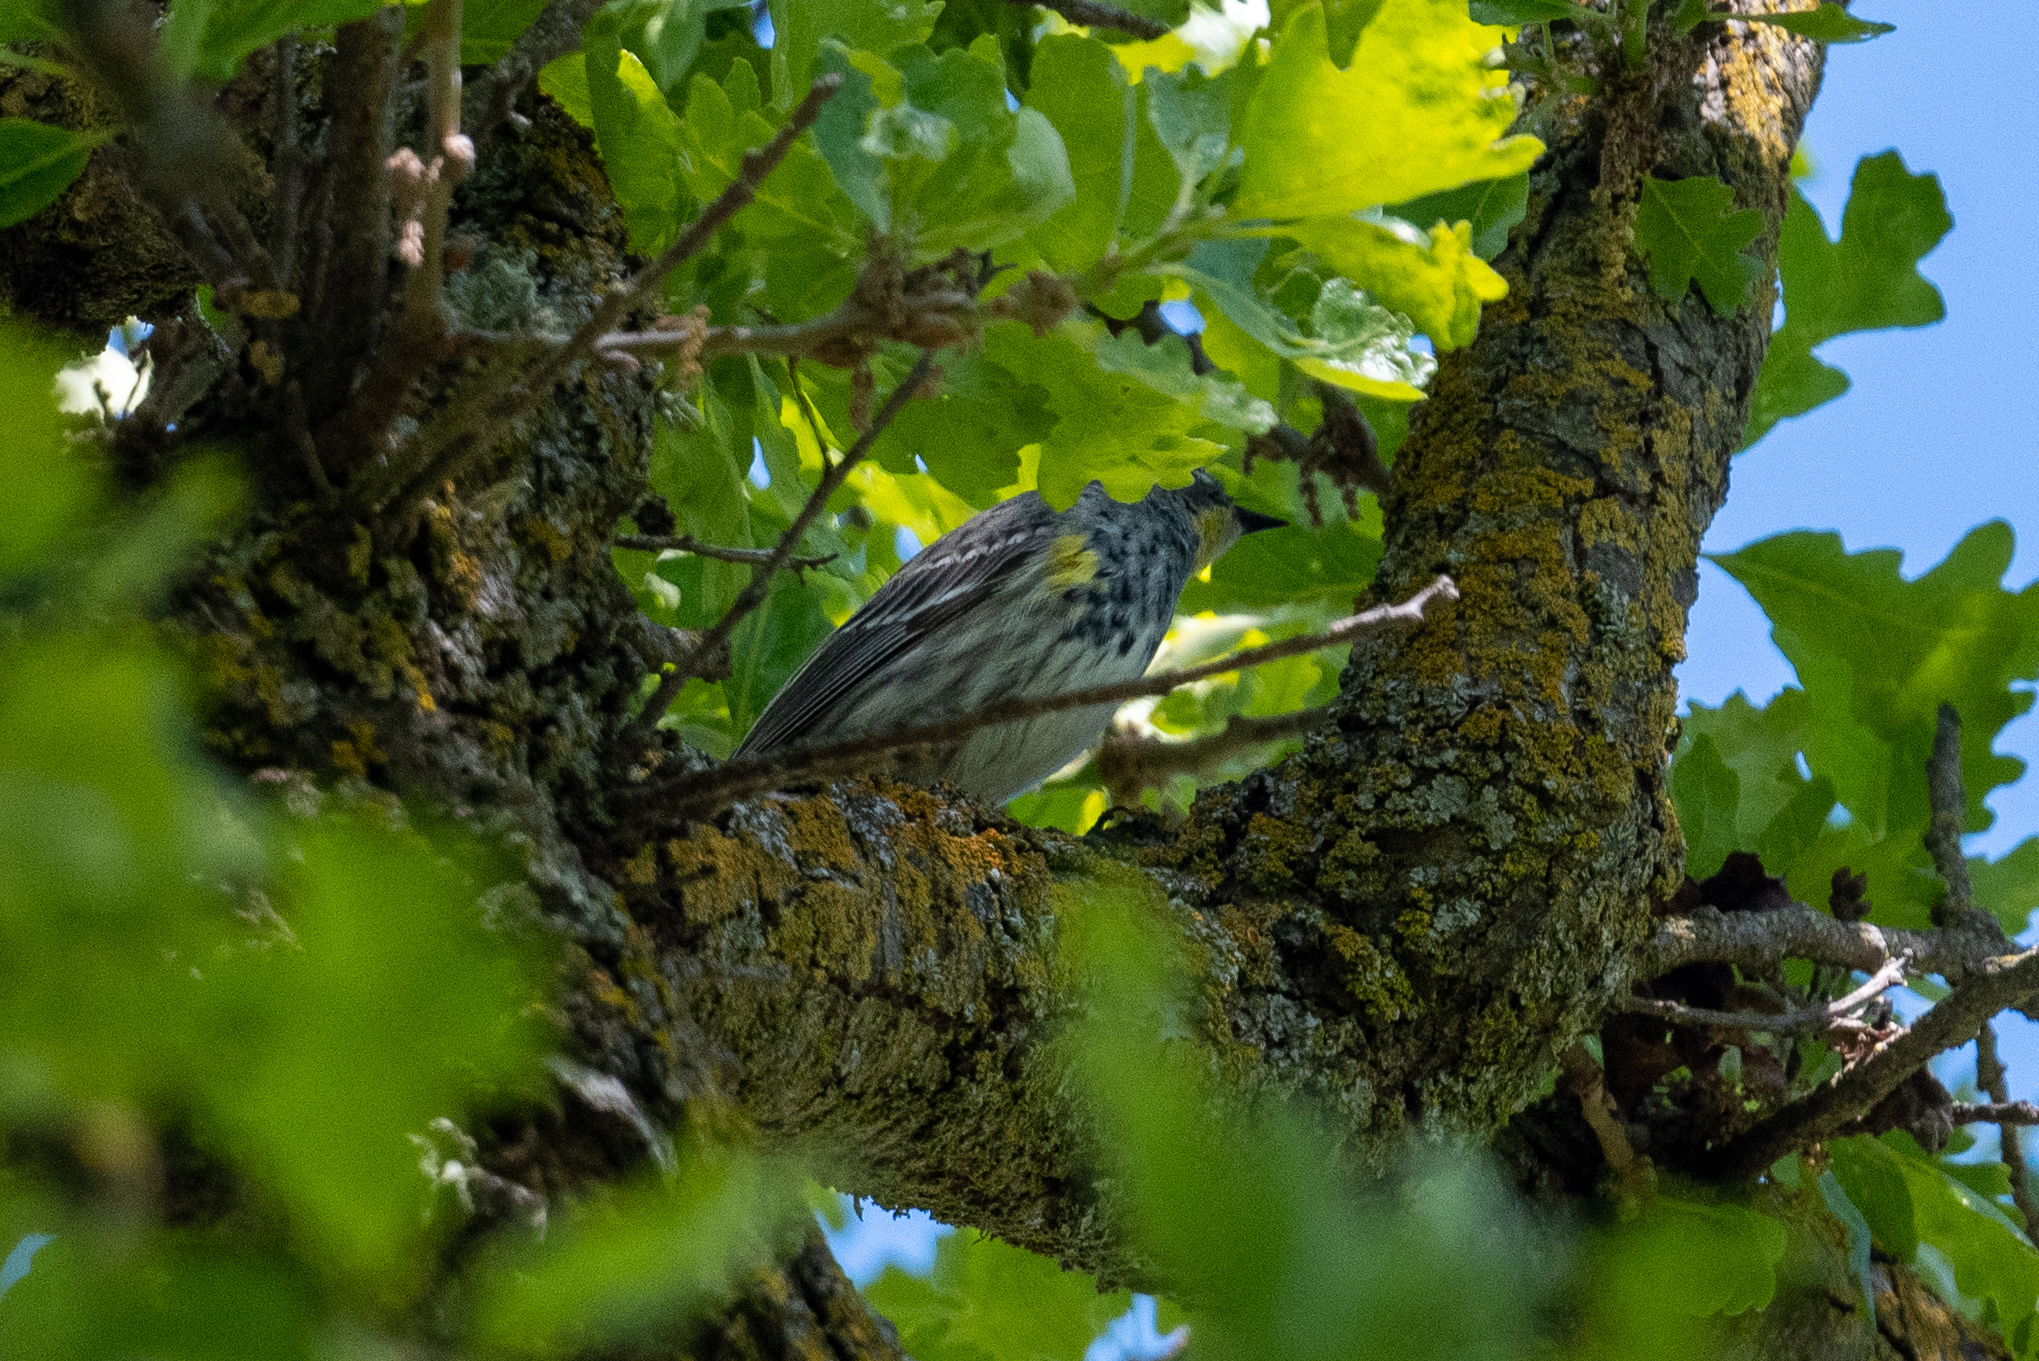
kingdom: Animalia
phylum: Chordata
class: Aves
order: Passeriformes
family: Parulidae
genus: Setophaga
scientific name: Setophaga coronata
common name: Myrtle warbler
